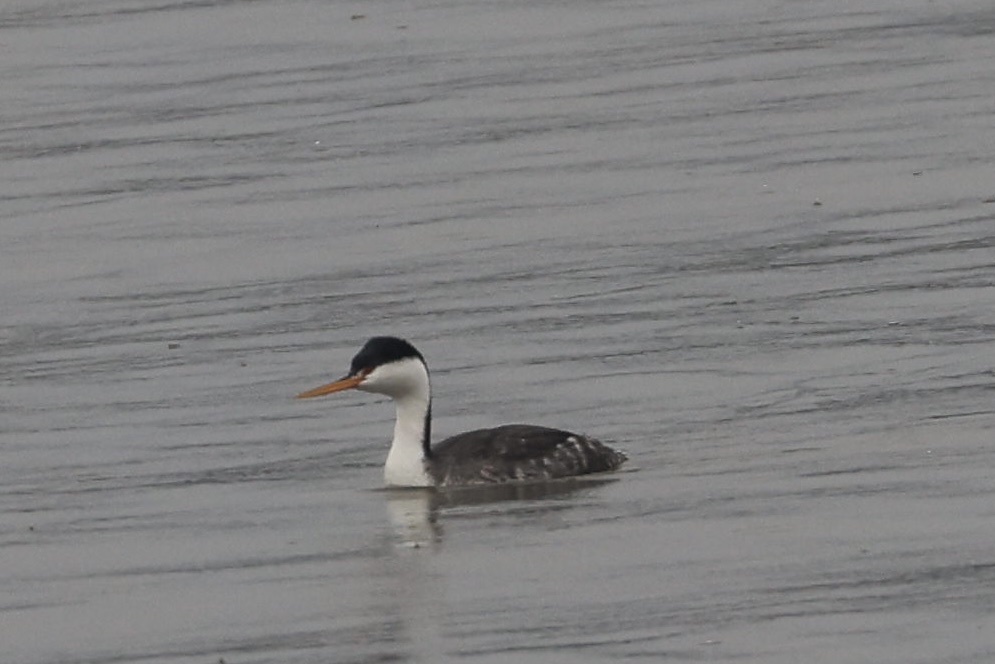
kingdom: Animalia
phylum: Chordata
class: Aves
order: Podicipediformes
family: Podicipedidae
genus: Aechmophorus
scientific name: Aechmophorus clarkii
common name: Clark's grebe
